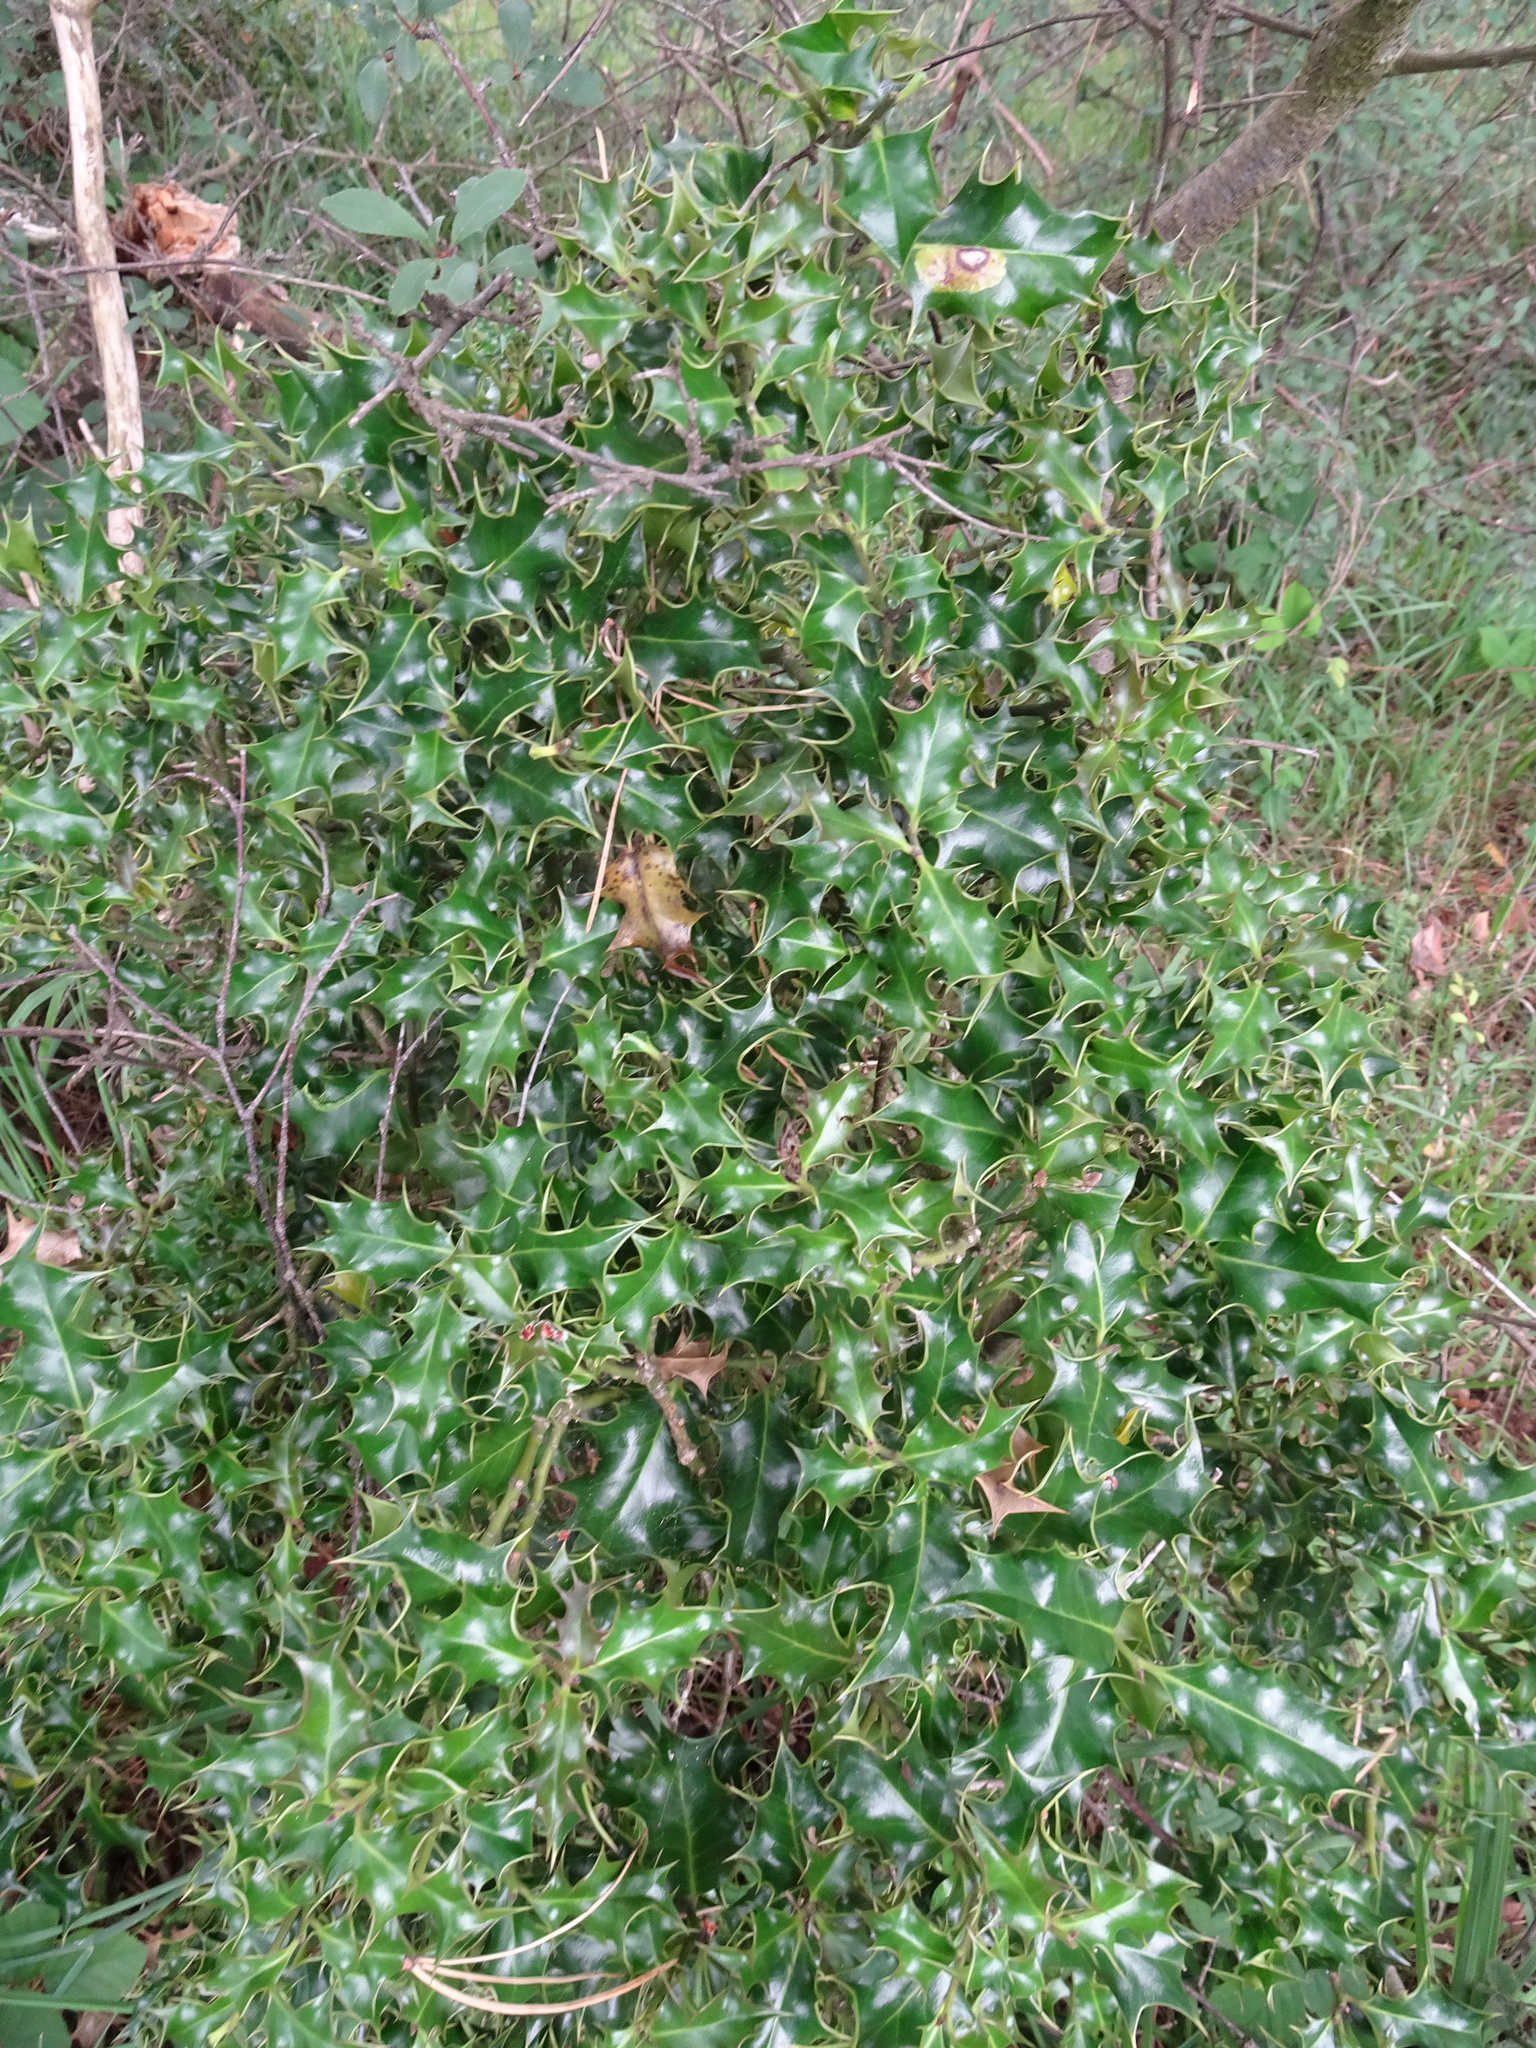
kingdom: Plantae
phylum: Tracheophyta
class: Magnoliopsida
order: Aquifoliales
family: Aquifoliaceae
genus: Ilex
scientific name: Ilex aquifolium
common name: English holly
